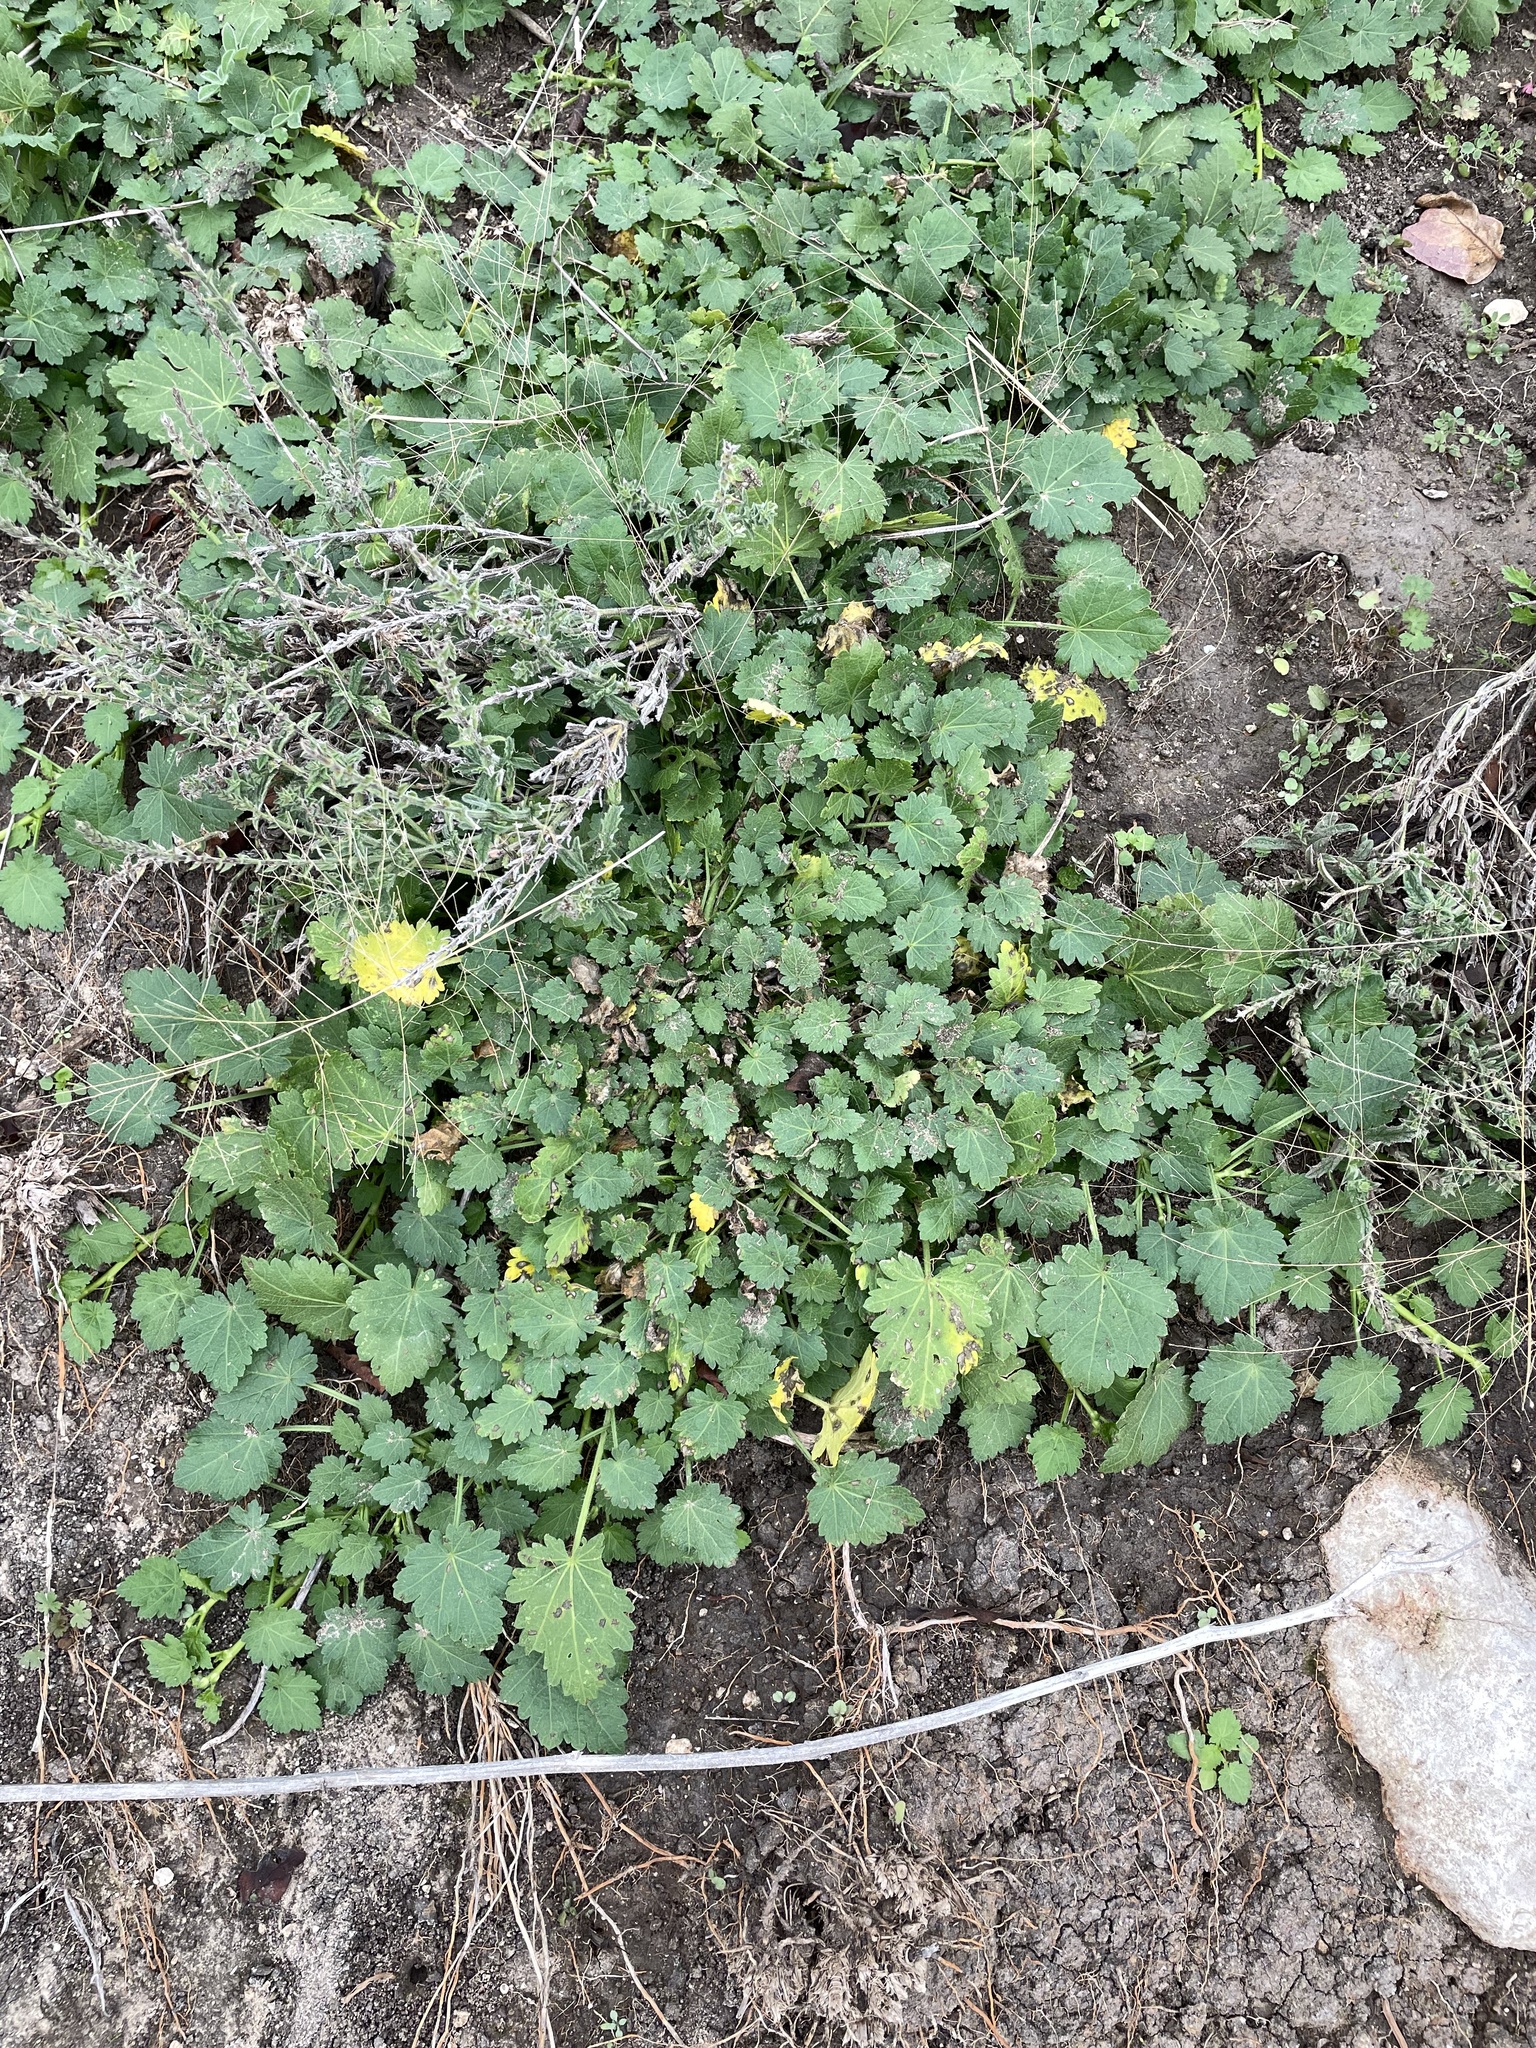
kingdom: Plantae
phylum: Tracheophyta
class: Magnoliopsida
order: Malvales
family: Malvaceae
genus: Modiola
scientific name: Modiola caroliniana
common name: Carolina bristlemallow
